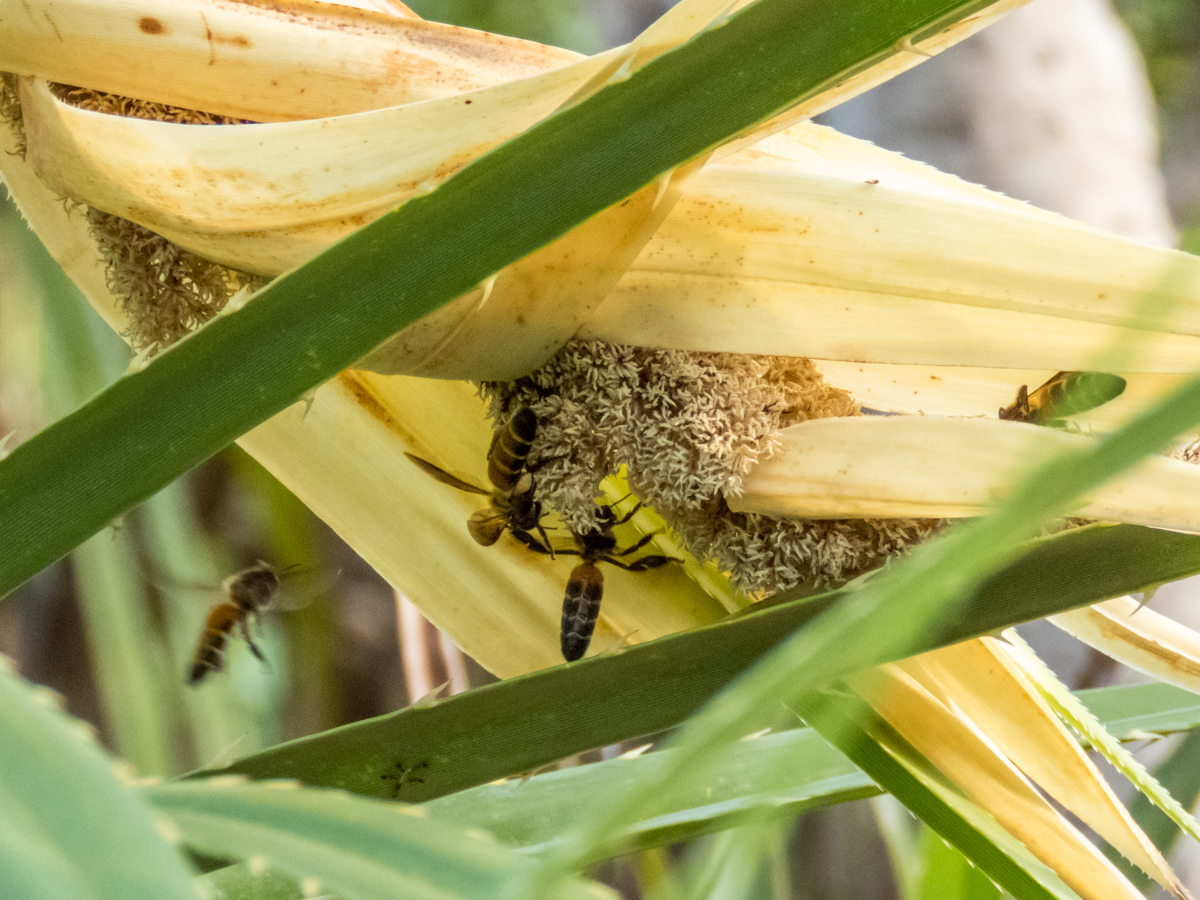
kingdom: Animalia
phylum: Arthropoda
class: Insecta
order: Hymenoptera
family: Apidae
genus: Apis
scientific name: Apis dorsata
